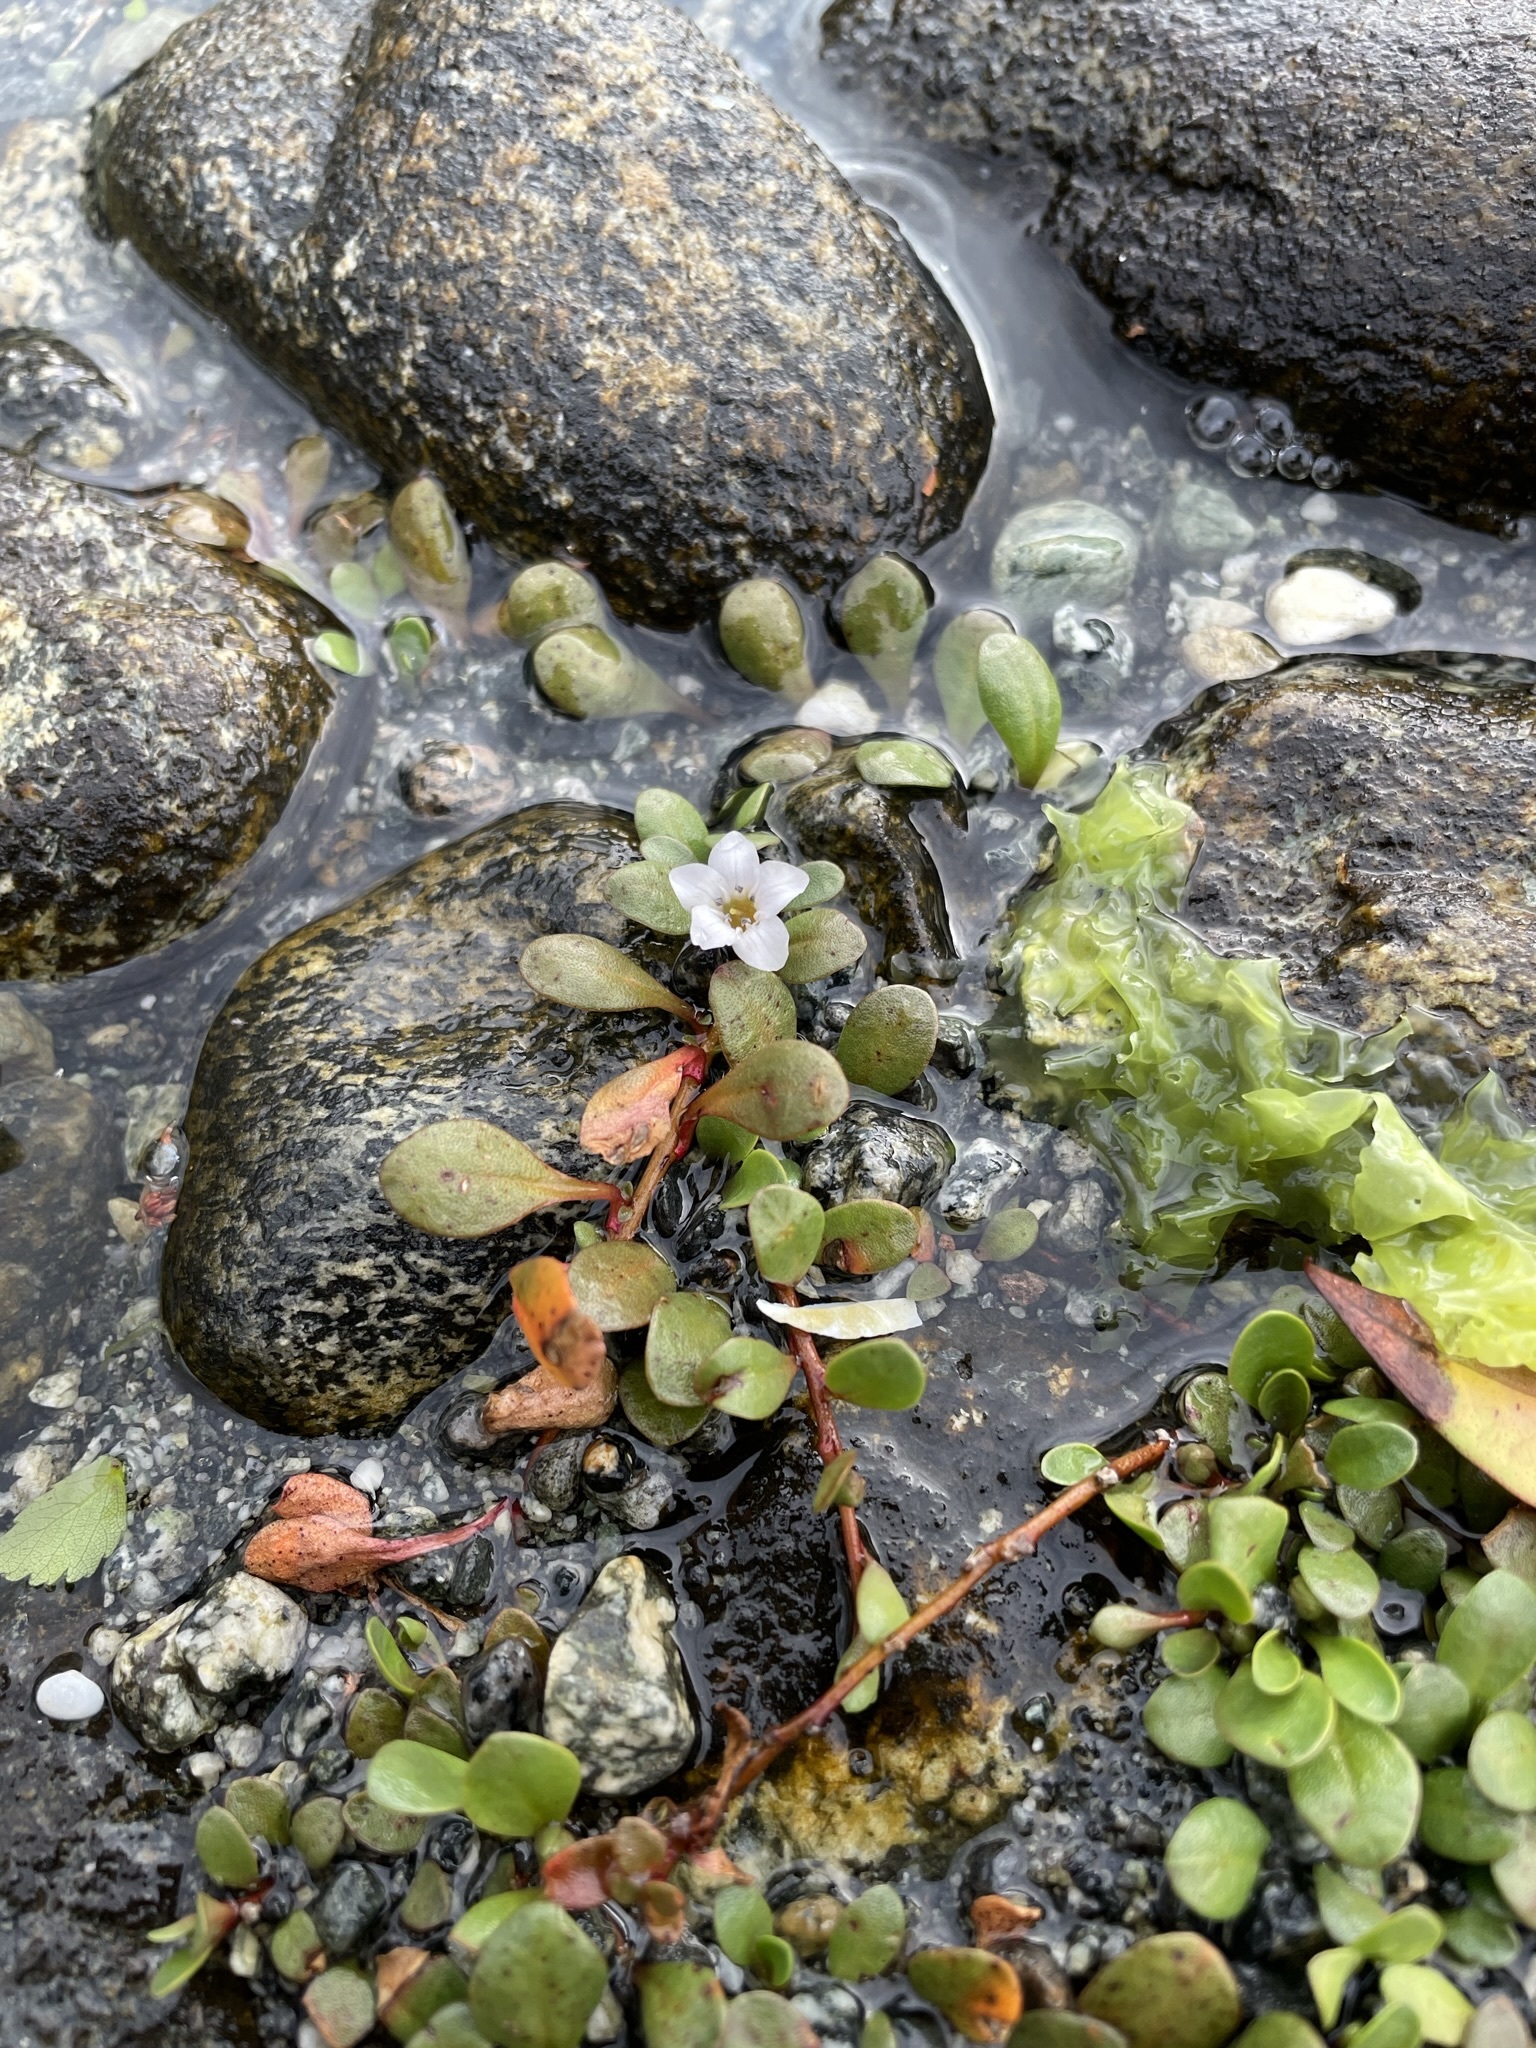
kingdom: Plantae
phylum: Tracheophyta
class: Magnoliopsida
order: Ericales
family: Primulaceae
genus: Samolus
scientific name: Samolus repens
